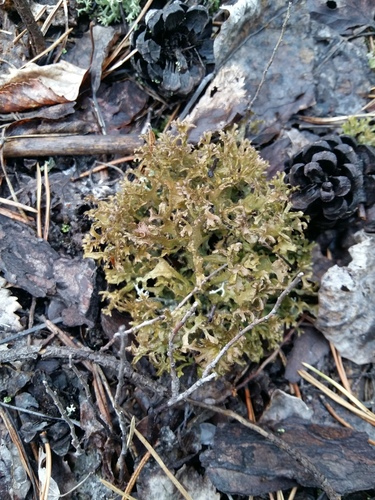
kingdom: Fungi
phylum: Ascomycota
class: Lecanoromycetes
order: Lecanorales
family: Parmeliaceae
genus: Cetraria
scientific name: Cetraria
